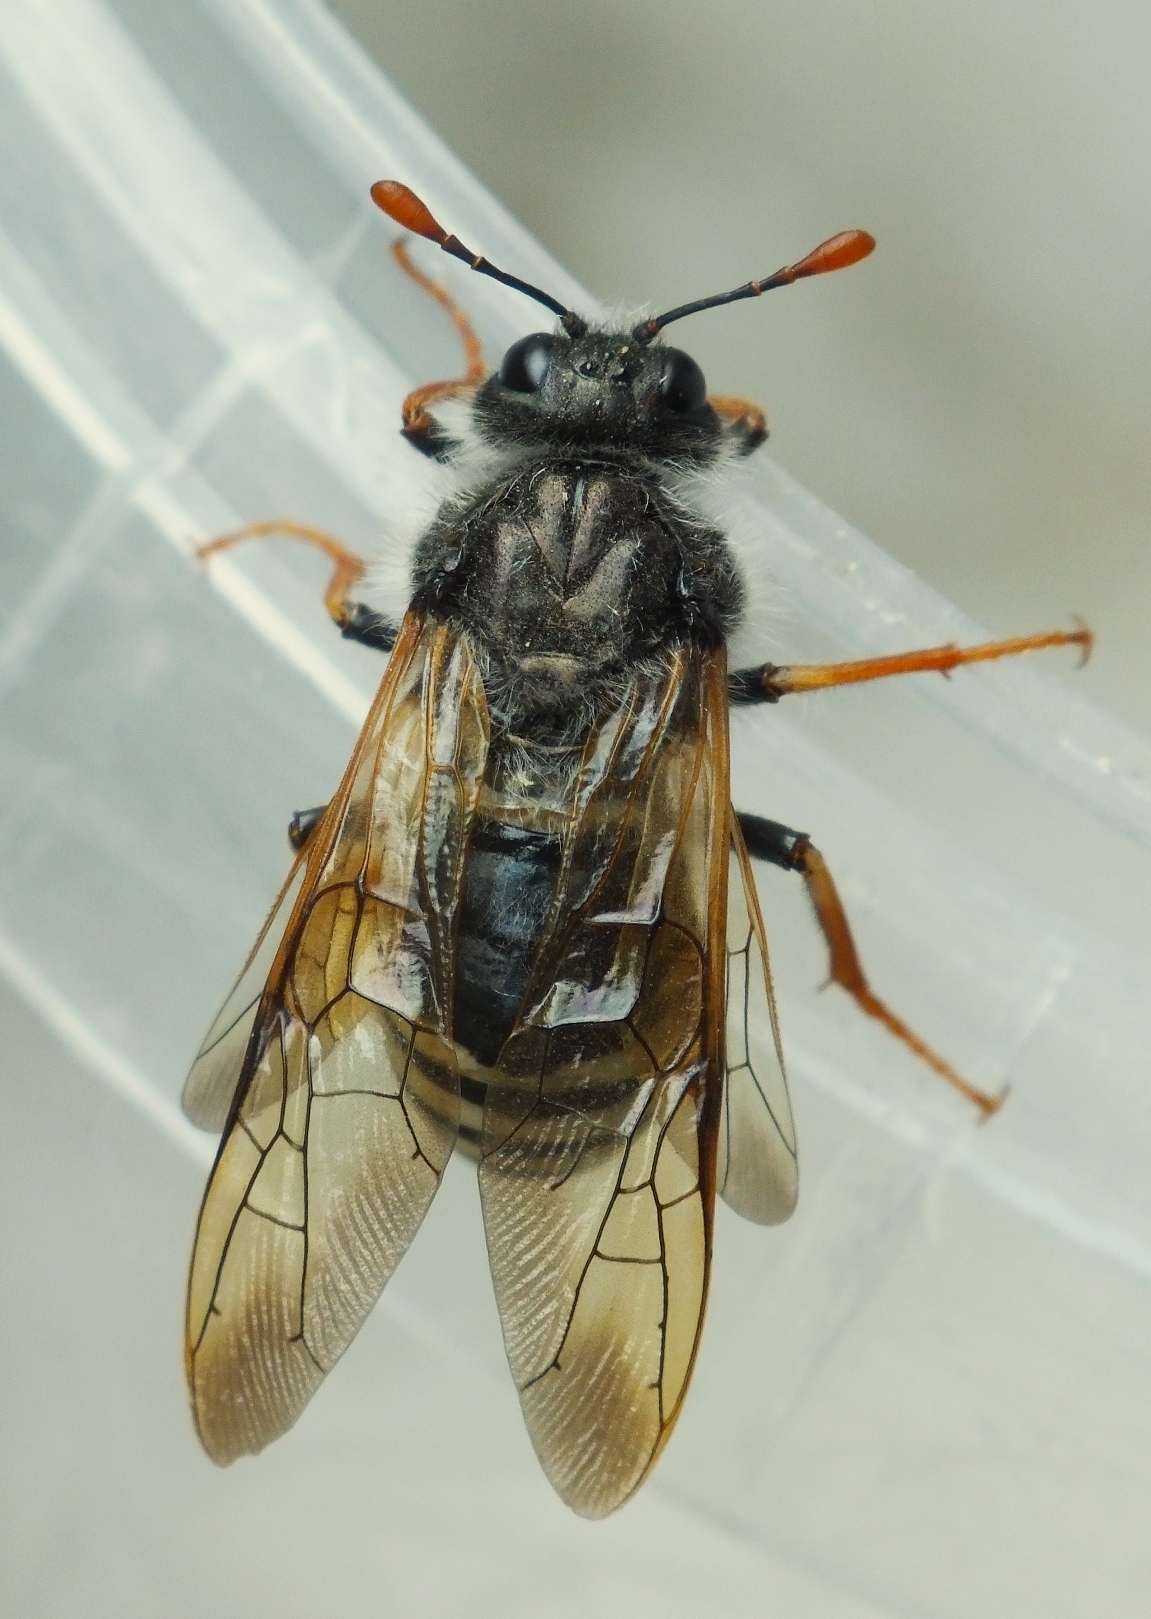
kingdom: Animalia
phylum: Arthropoda
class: Insecta
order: Hymenoptera
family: Cimbicidae
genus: Pseudoclavellaria
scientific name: Pseudoclavellaria amerinae
